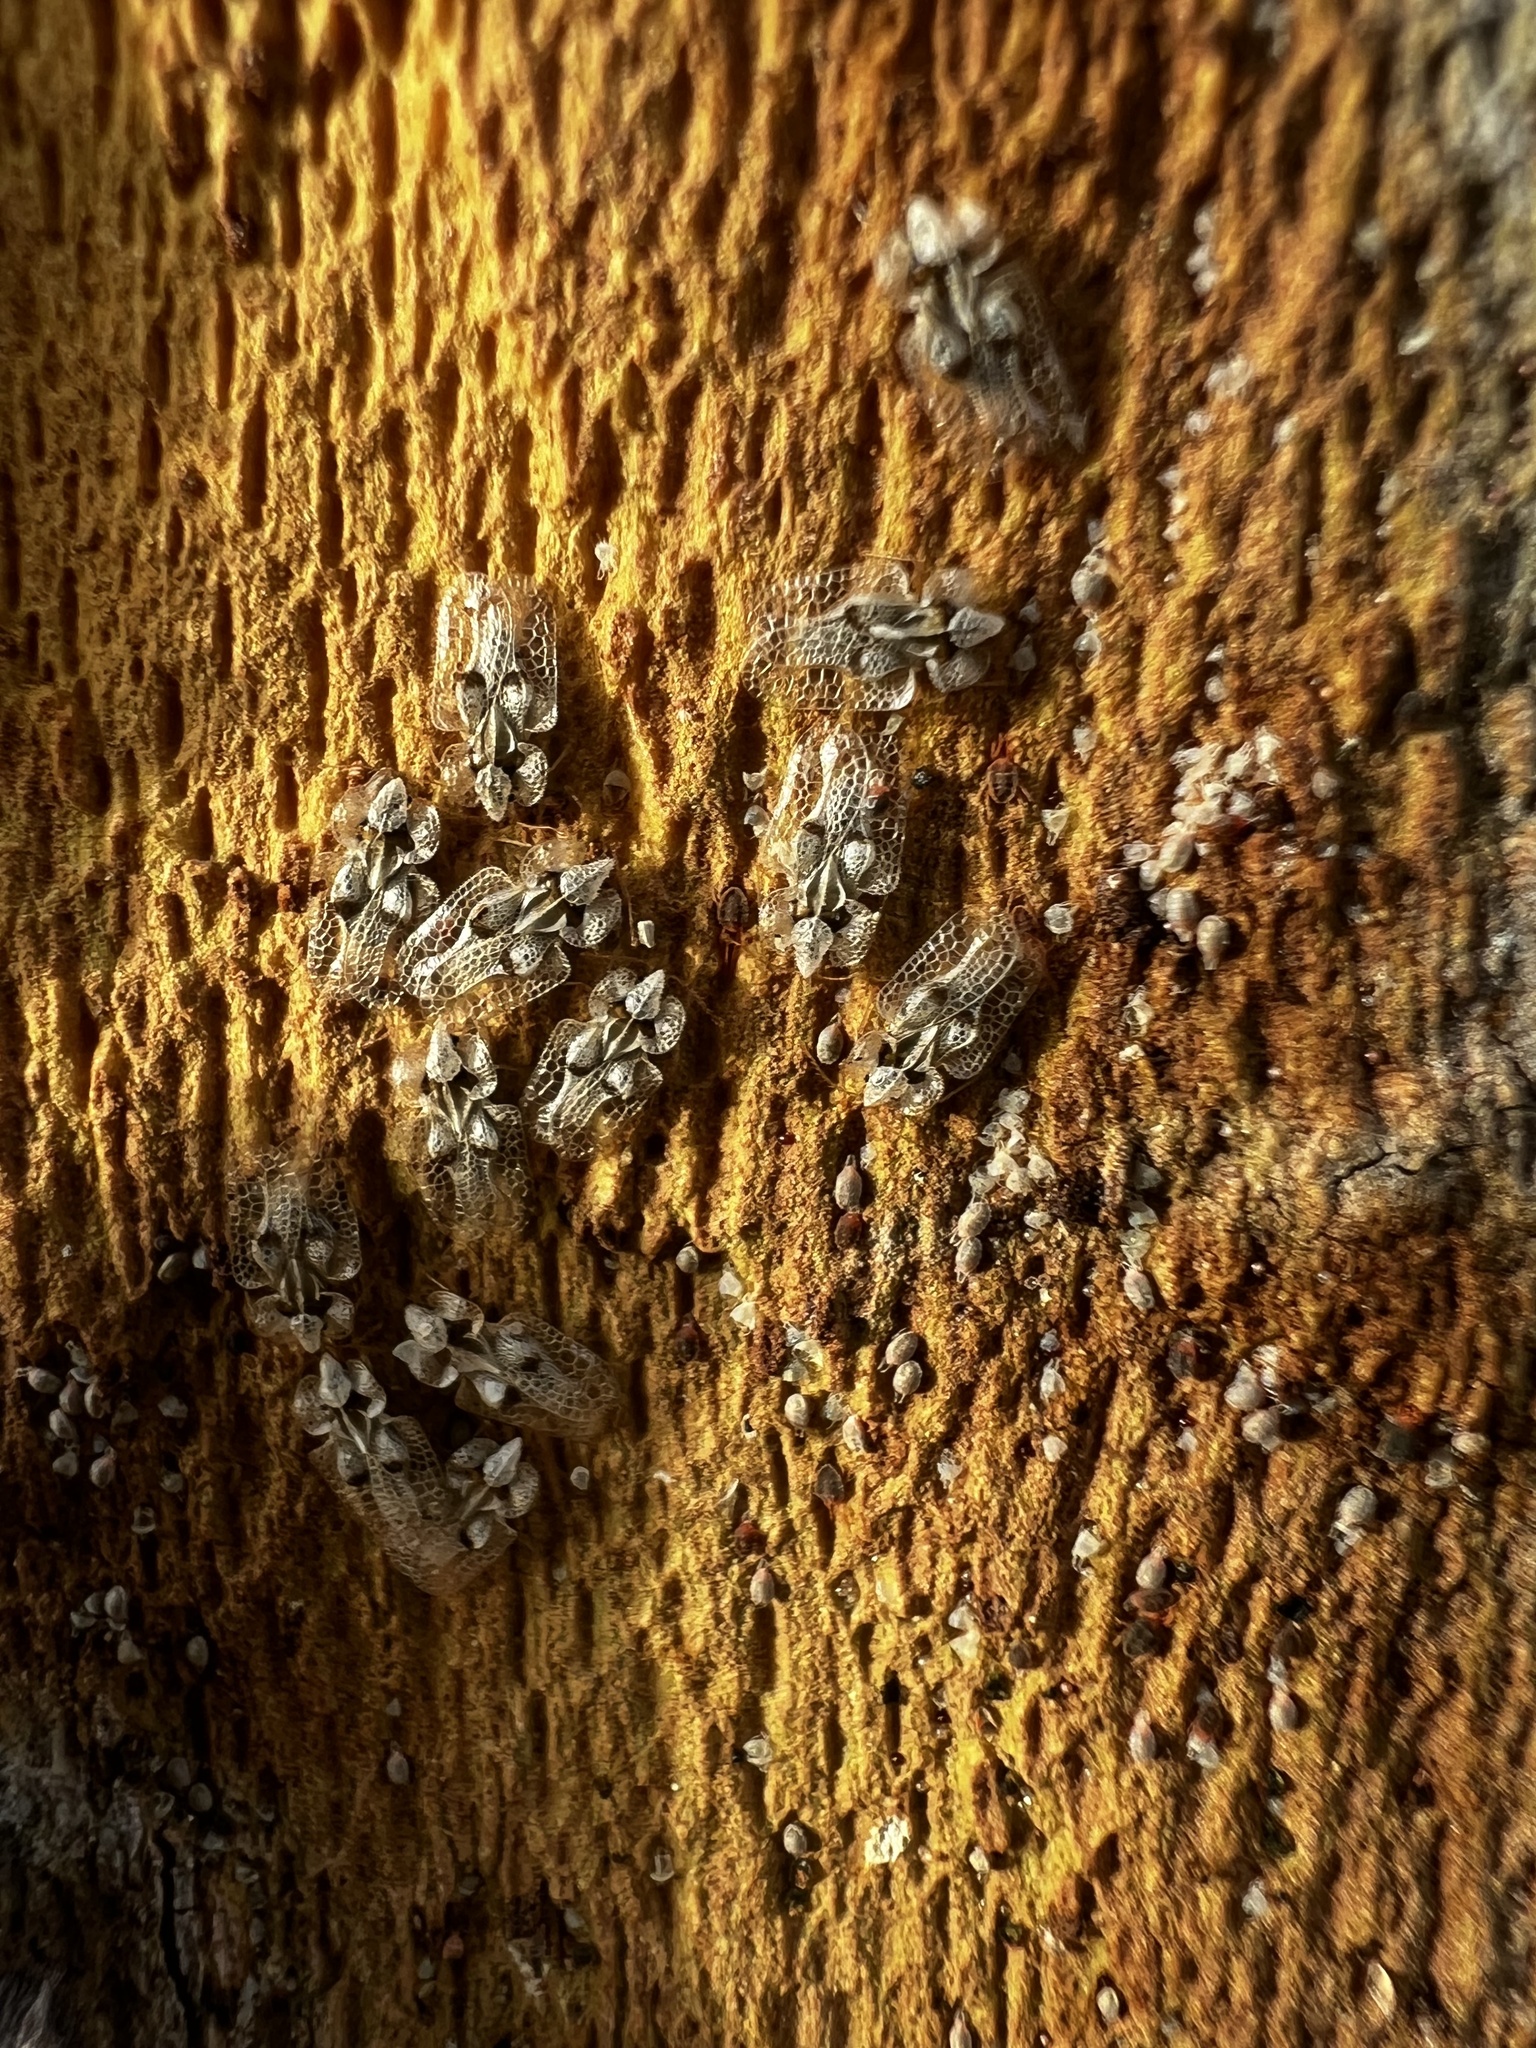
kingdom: Animalia
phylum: Arthropoda
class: Insecta
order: Hemiptera
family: Tingidae
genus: Corythucha
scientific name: Corythucha ciliata
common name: Sycamore lace bug
